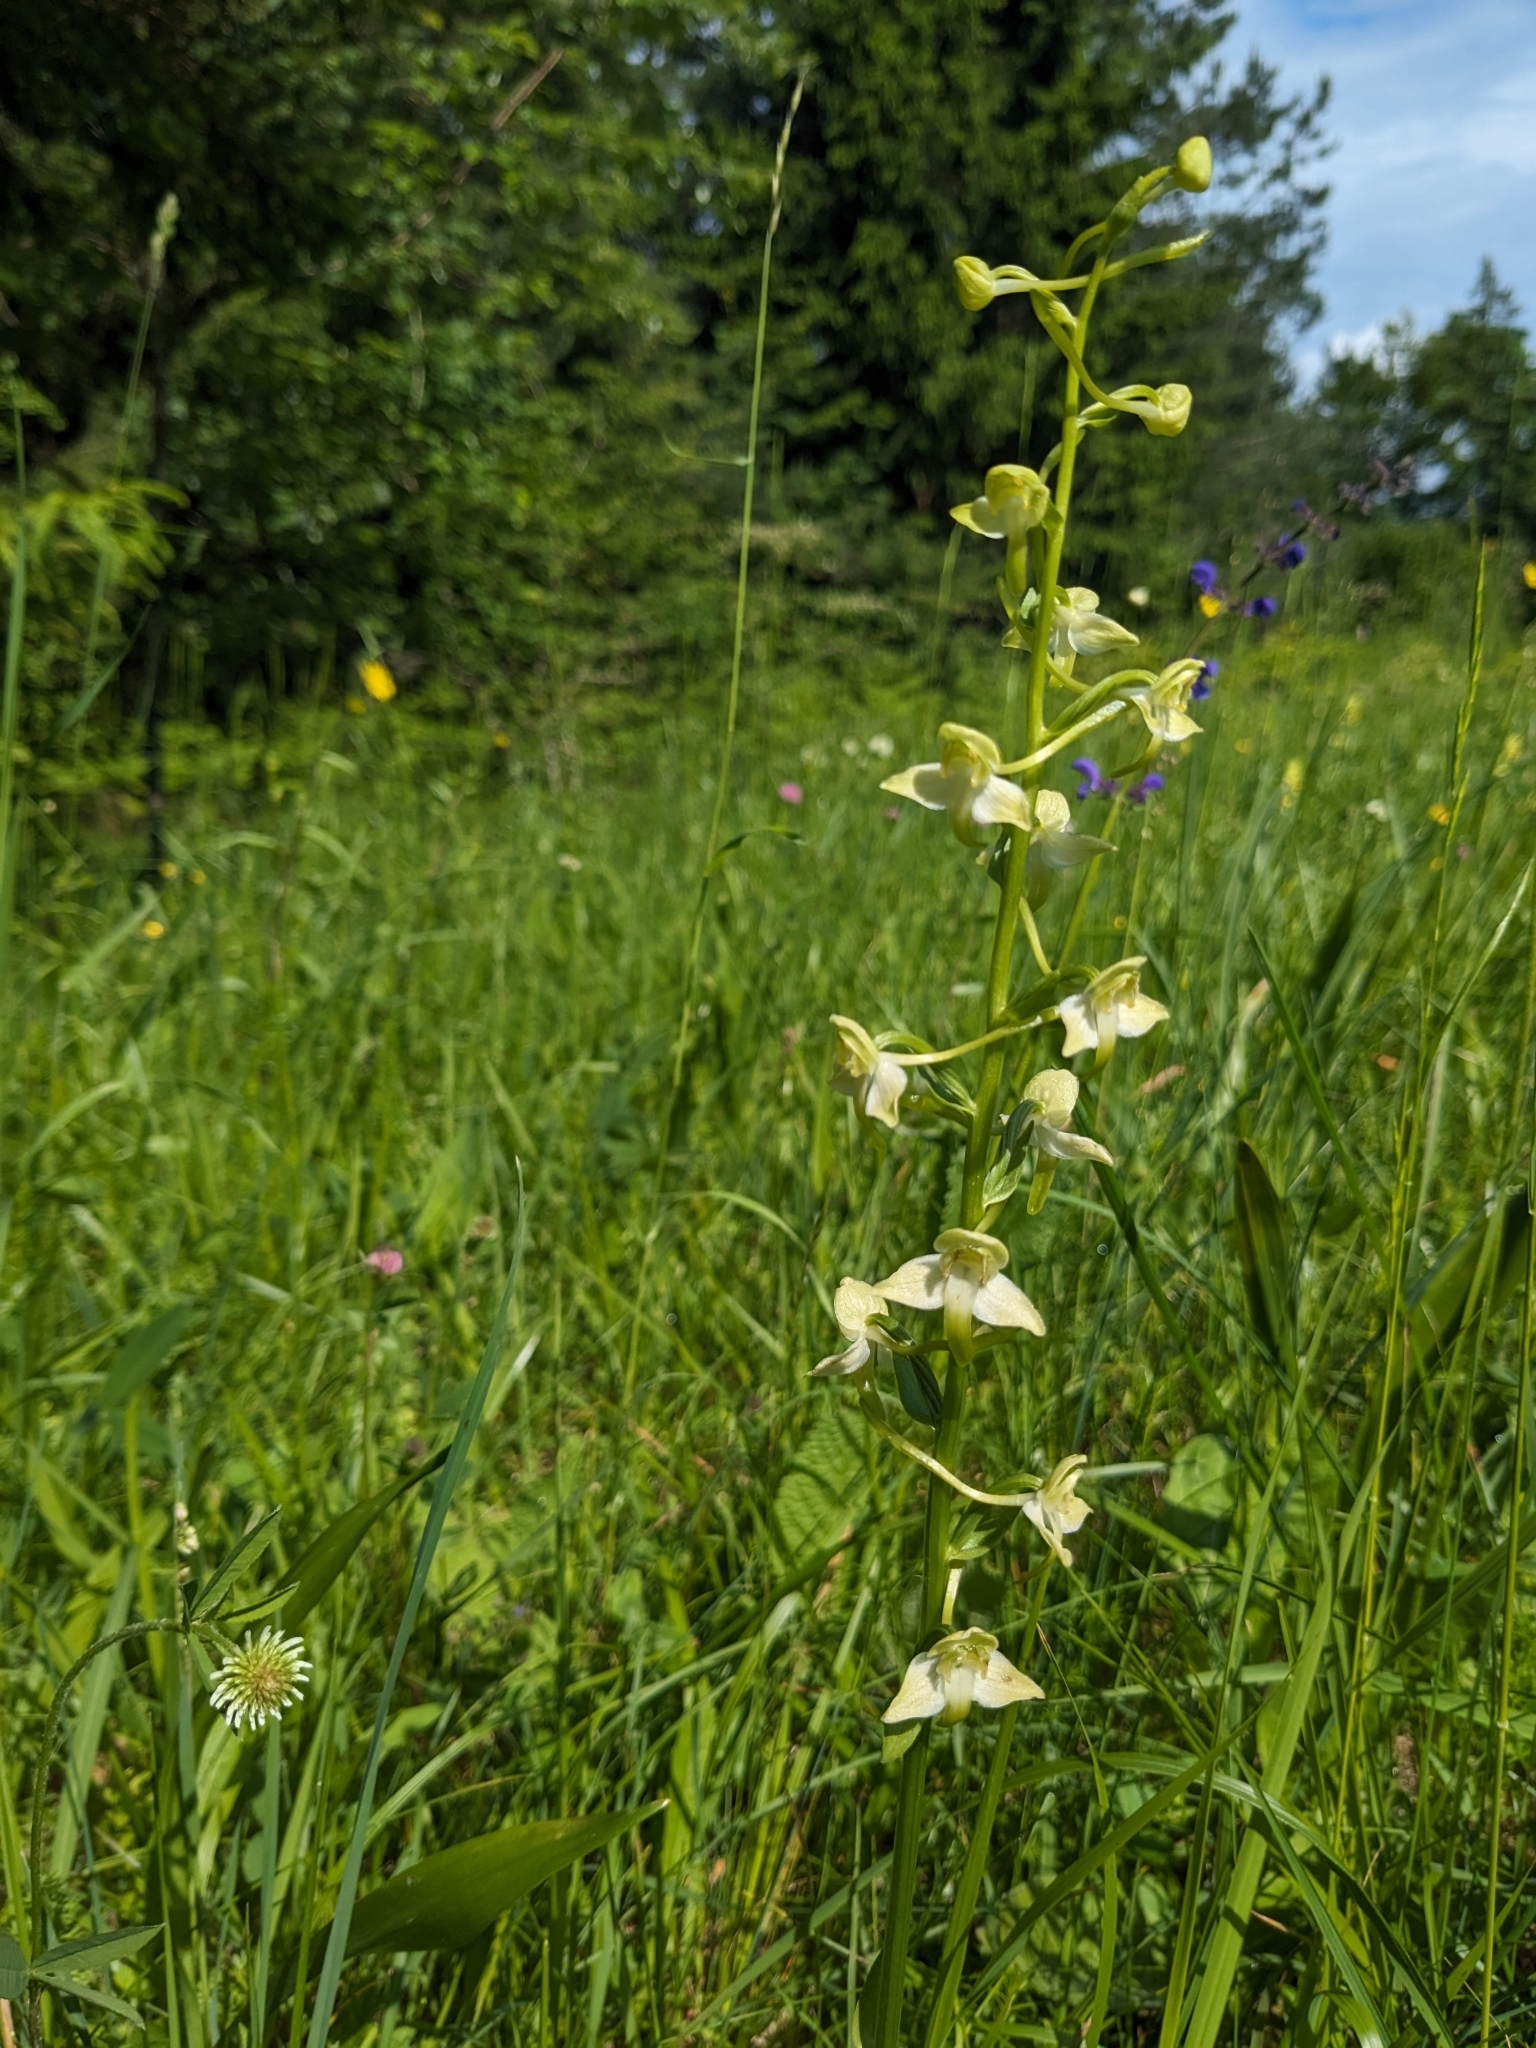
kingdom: Plantae
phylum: Tracheophyta
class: Liliopsida
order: Asparagales
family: Orchidaceae
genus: Platanthera
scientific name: Platanthera chlorantha
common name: Greater butterfly-orchid
